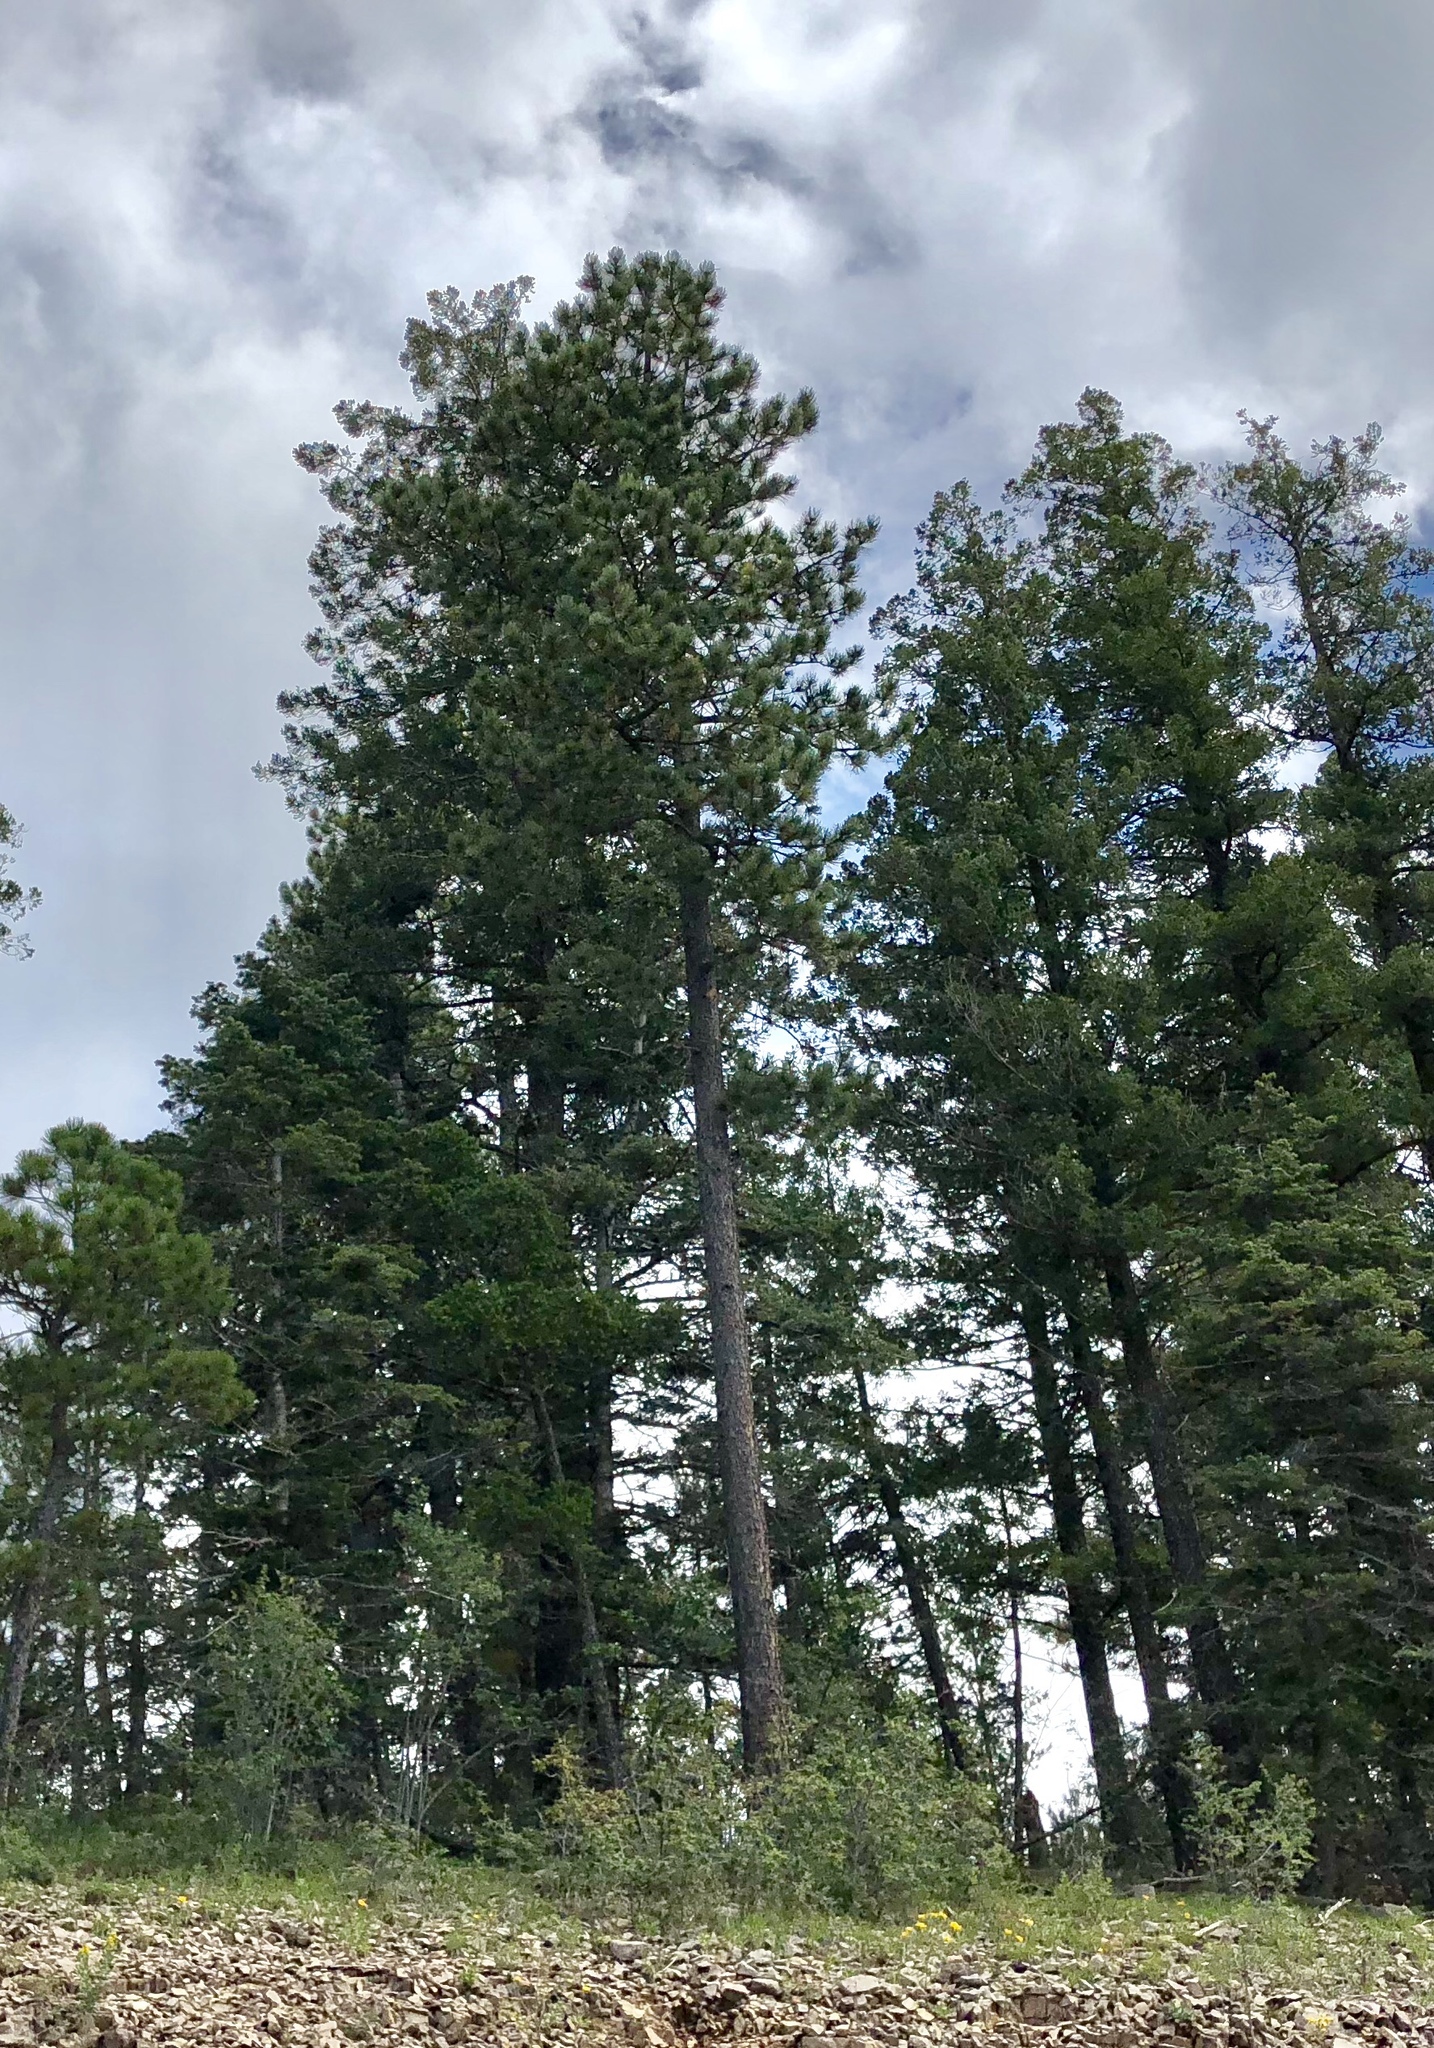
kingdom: Plantae
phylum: Tracheophyta
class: Pinopsida
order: Pinales
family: Pinaceae
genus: Pinus
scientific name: Pinus ponderosa
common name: Western yellow-pine
